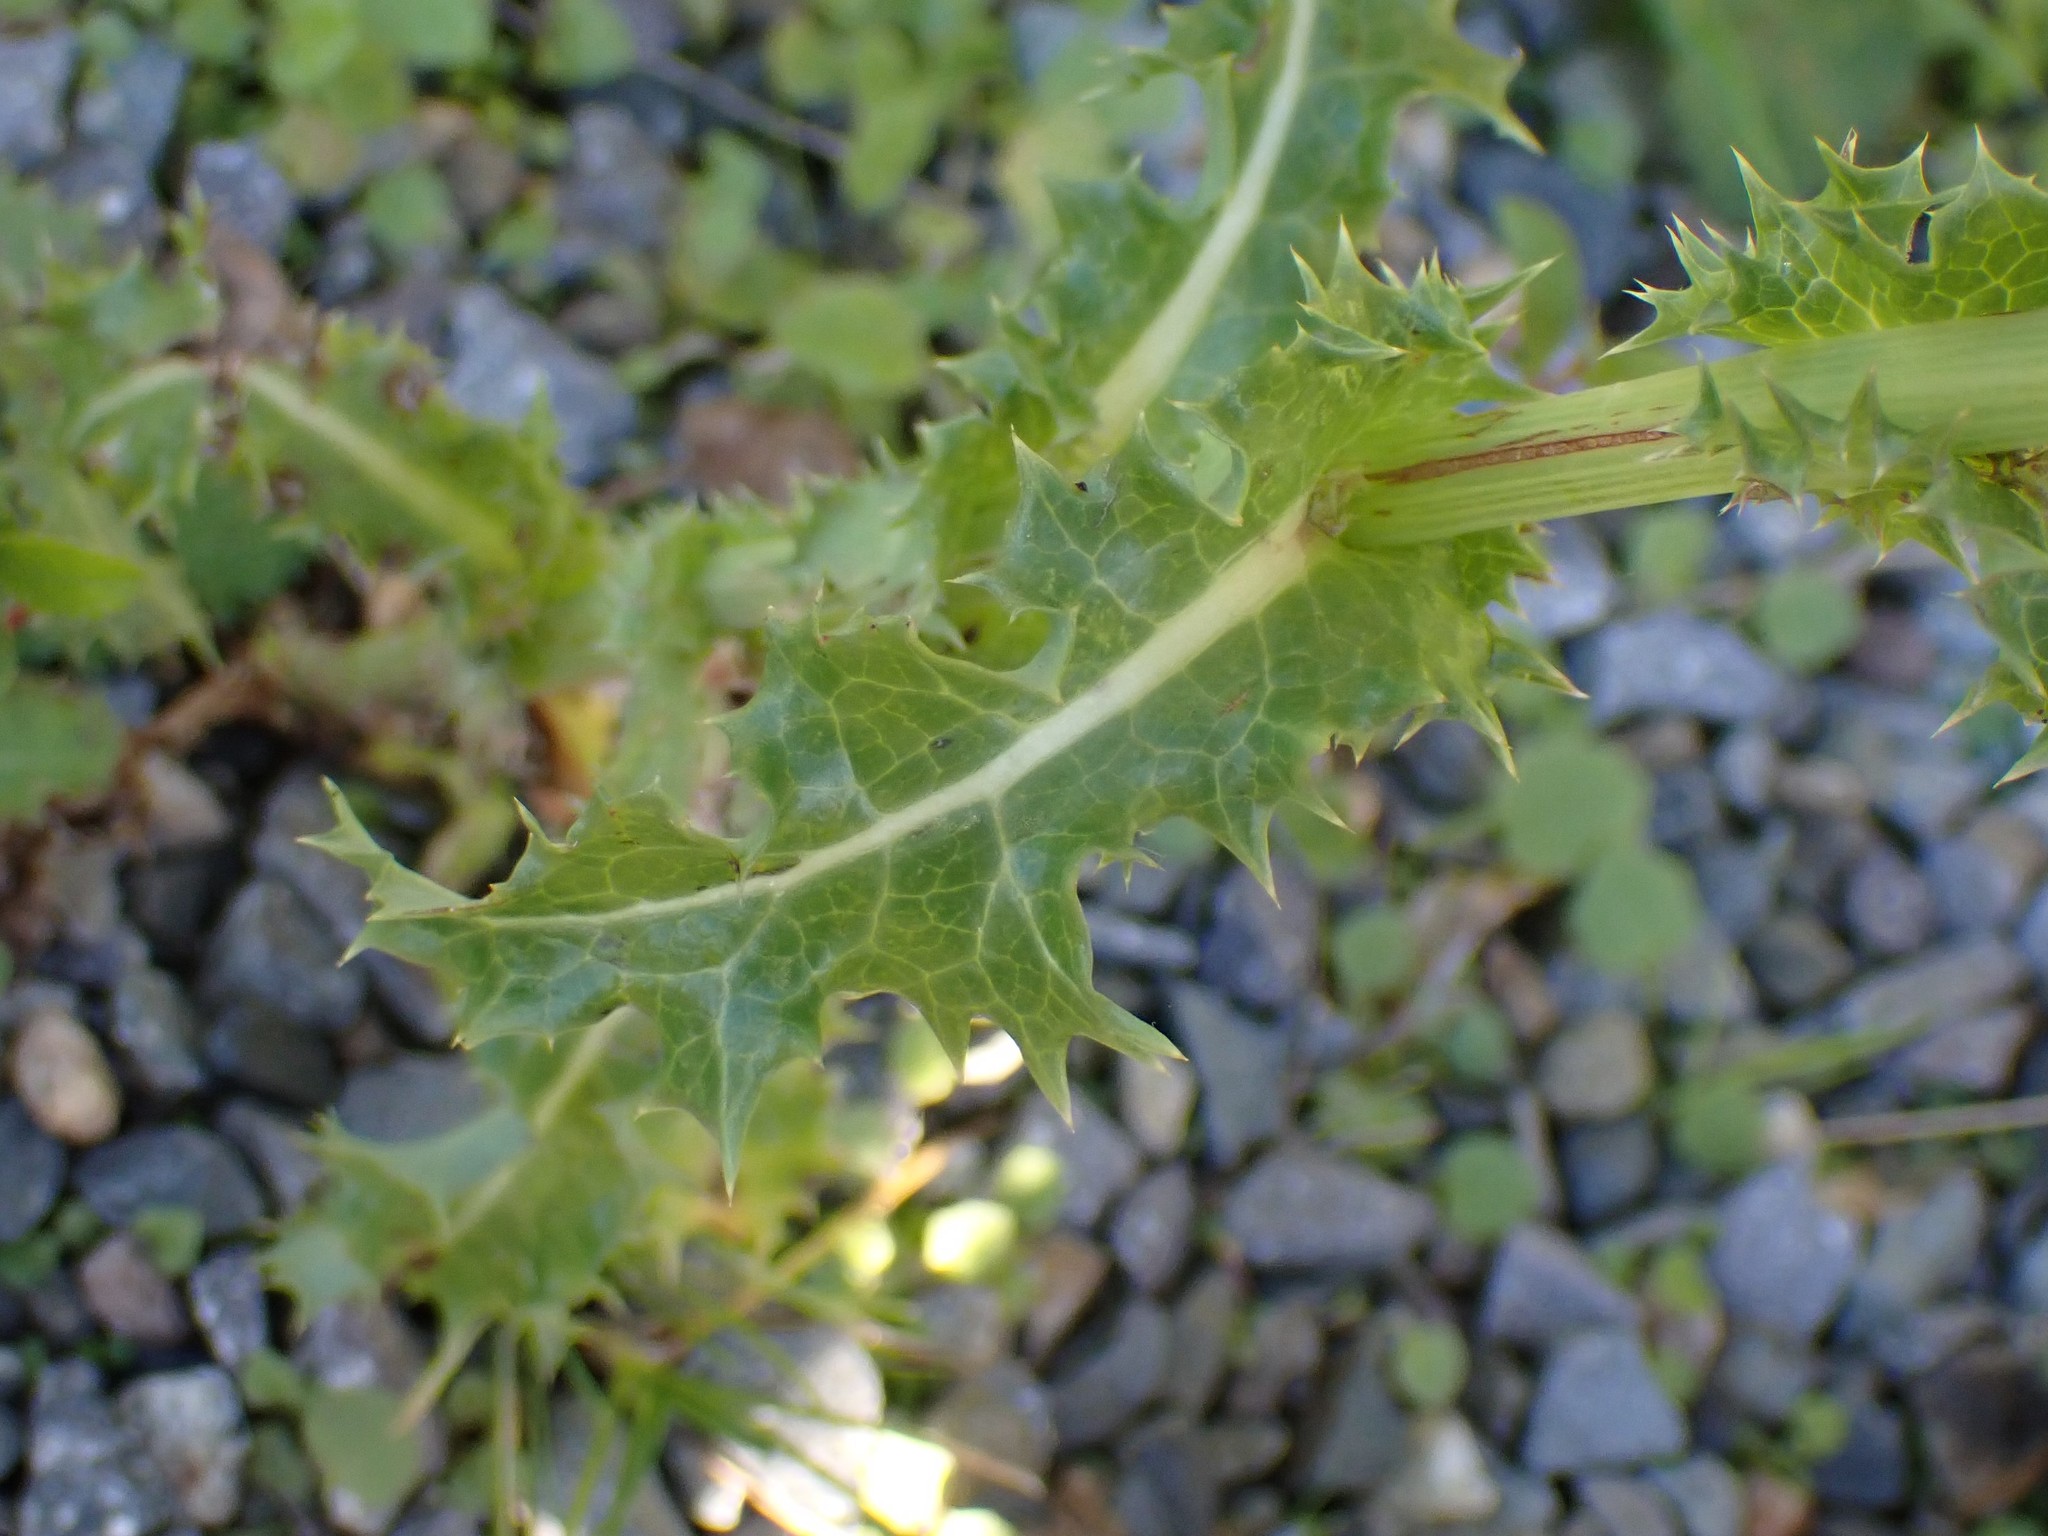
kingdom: Plantae
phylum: Tracheophyta
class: Magnoliopsida
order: Asterales
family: Asteraceae
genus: Sonchus
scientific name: Sonchus asper
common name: Prickly sow-thistle
